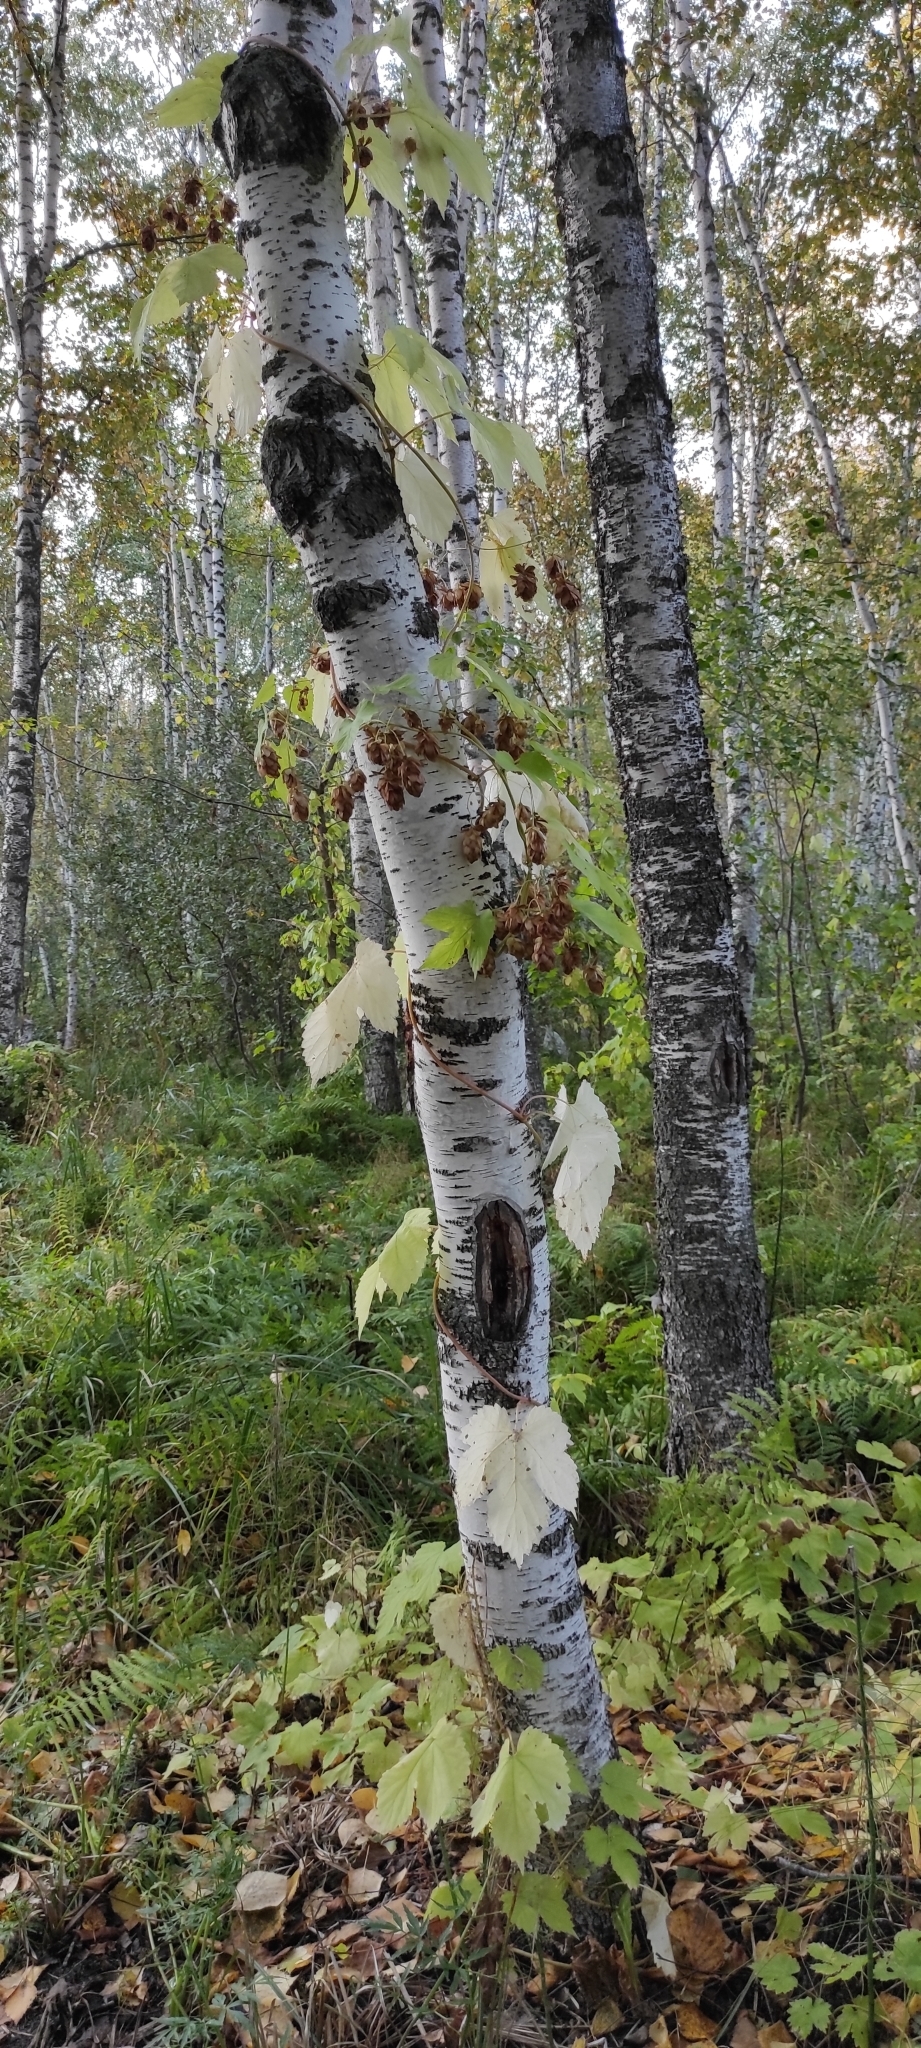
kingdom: Plantae
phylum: Tracheophyta
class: Magnoliopsida
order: Rosales
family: Cannabaceae
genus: Humulus
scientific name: Humulus lupulus
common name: Hop
